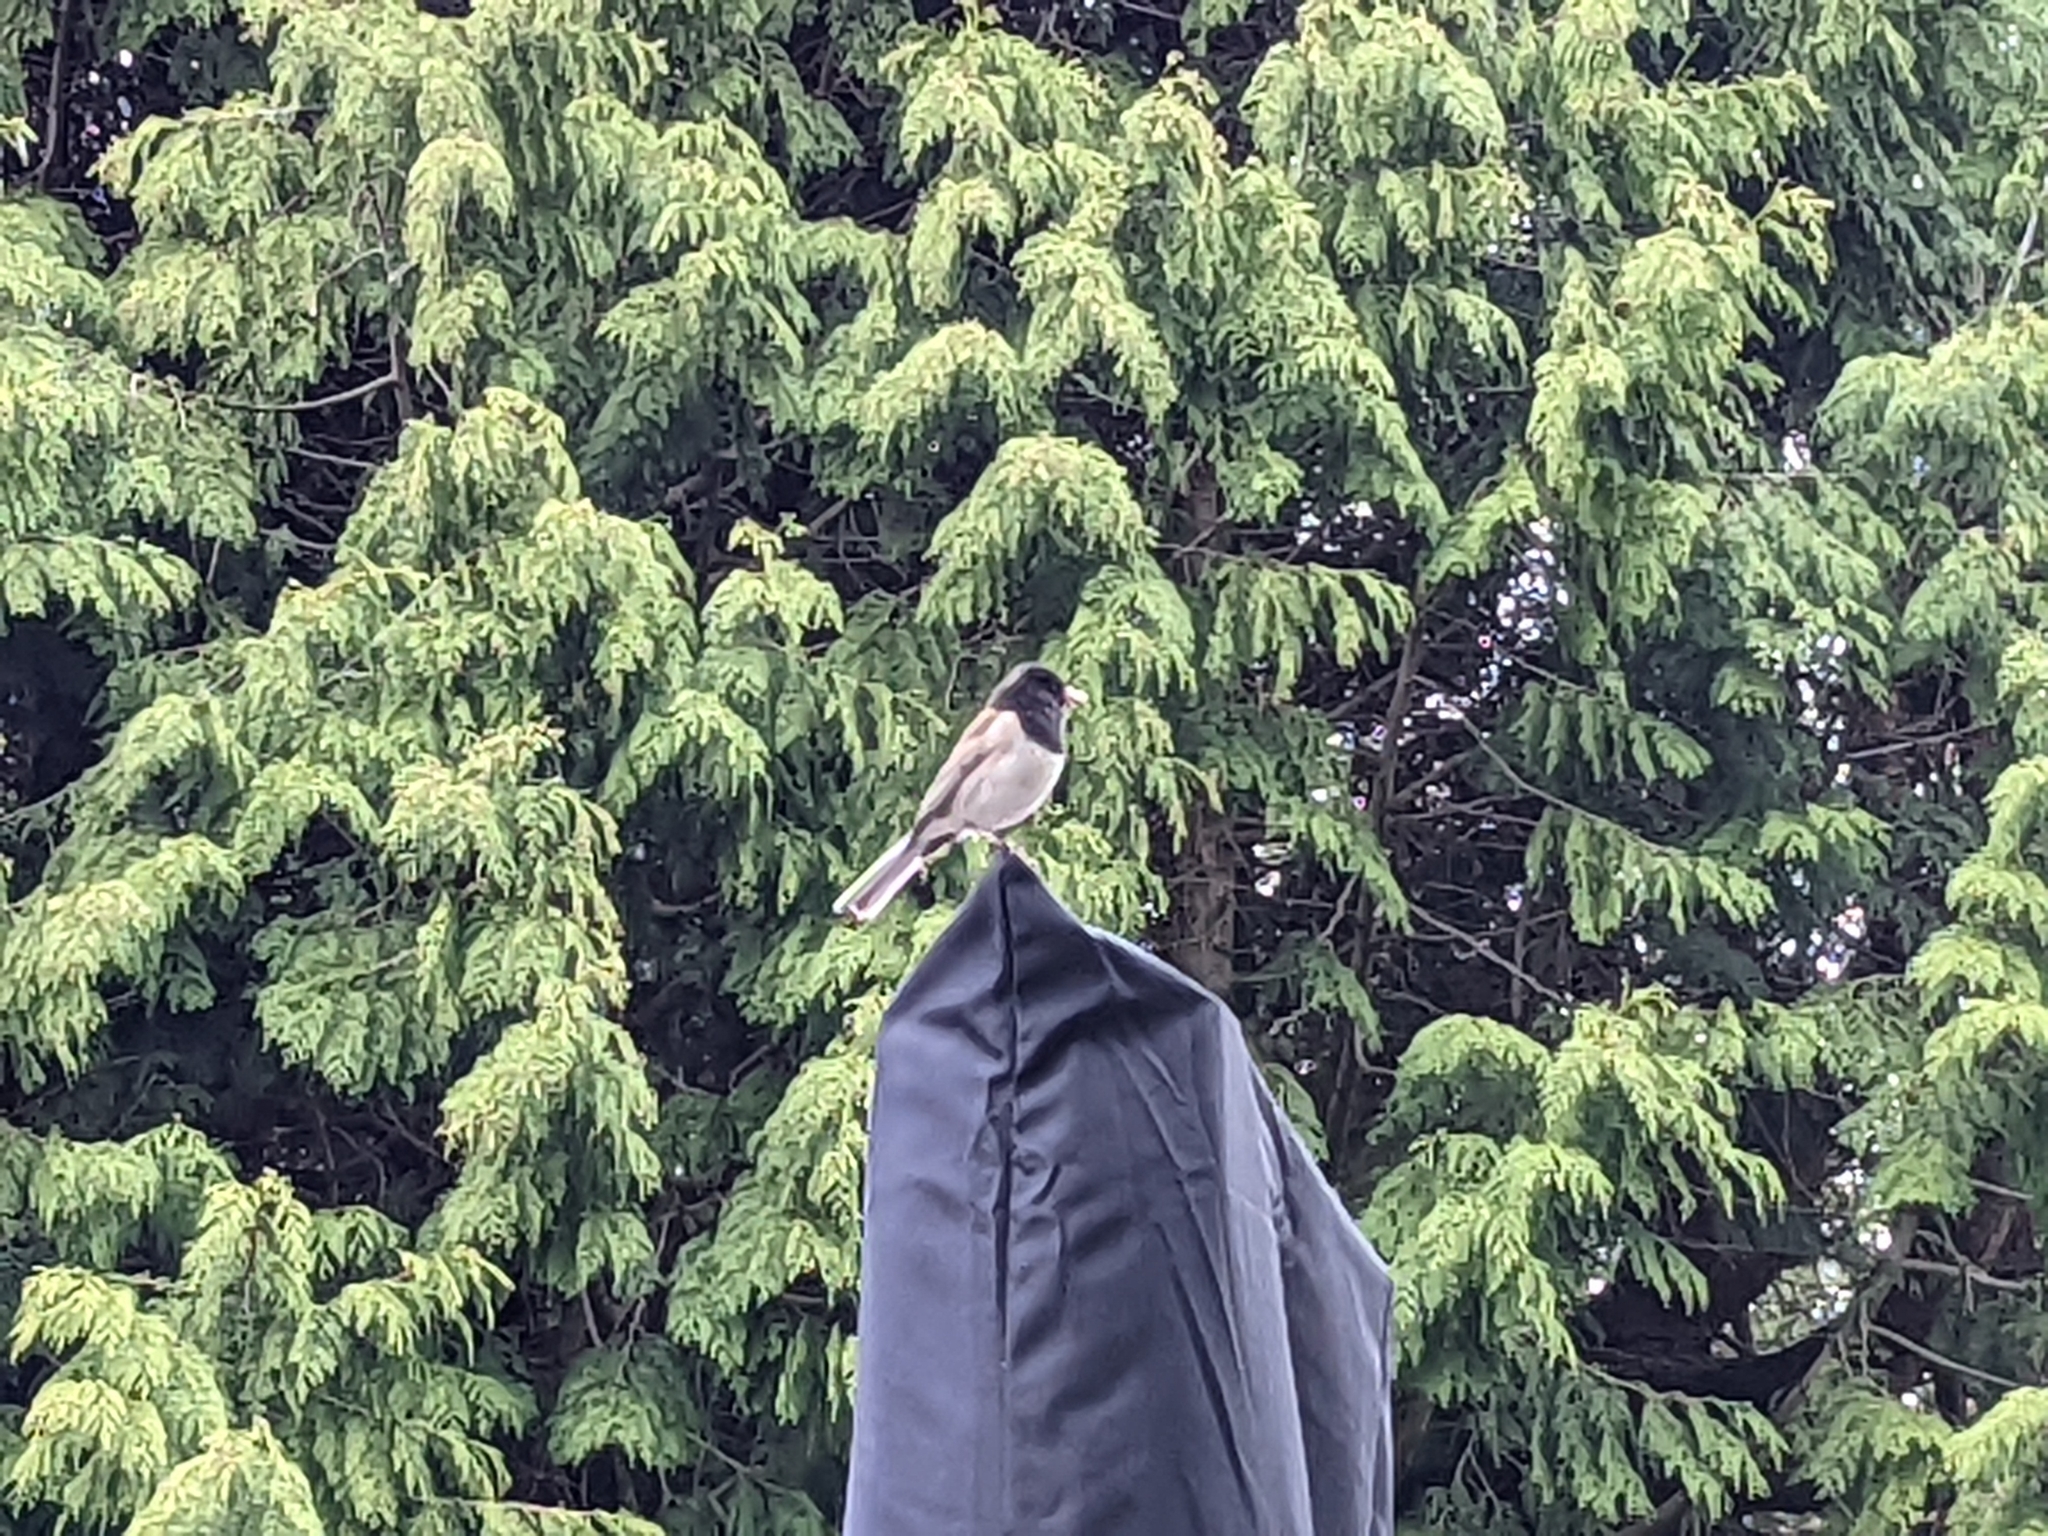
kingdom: Animalia
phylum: Chordata
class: Aves
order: Passeriformes
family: Passerellidae
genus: Junco
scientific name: Junco hyemalis
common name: Dark-eyed junco
